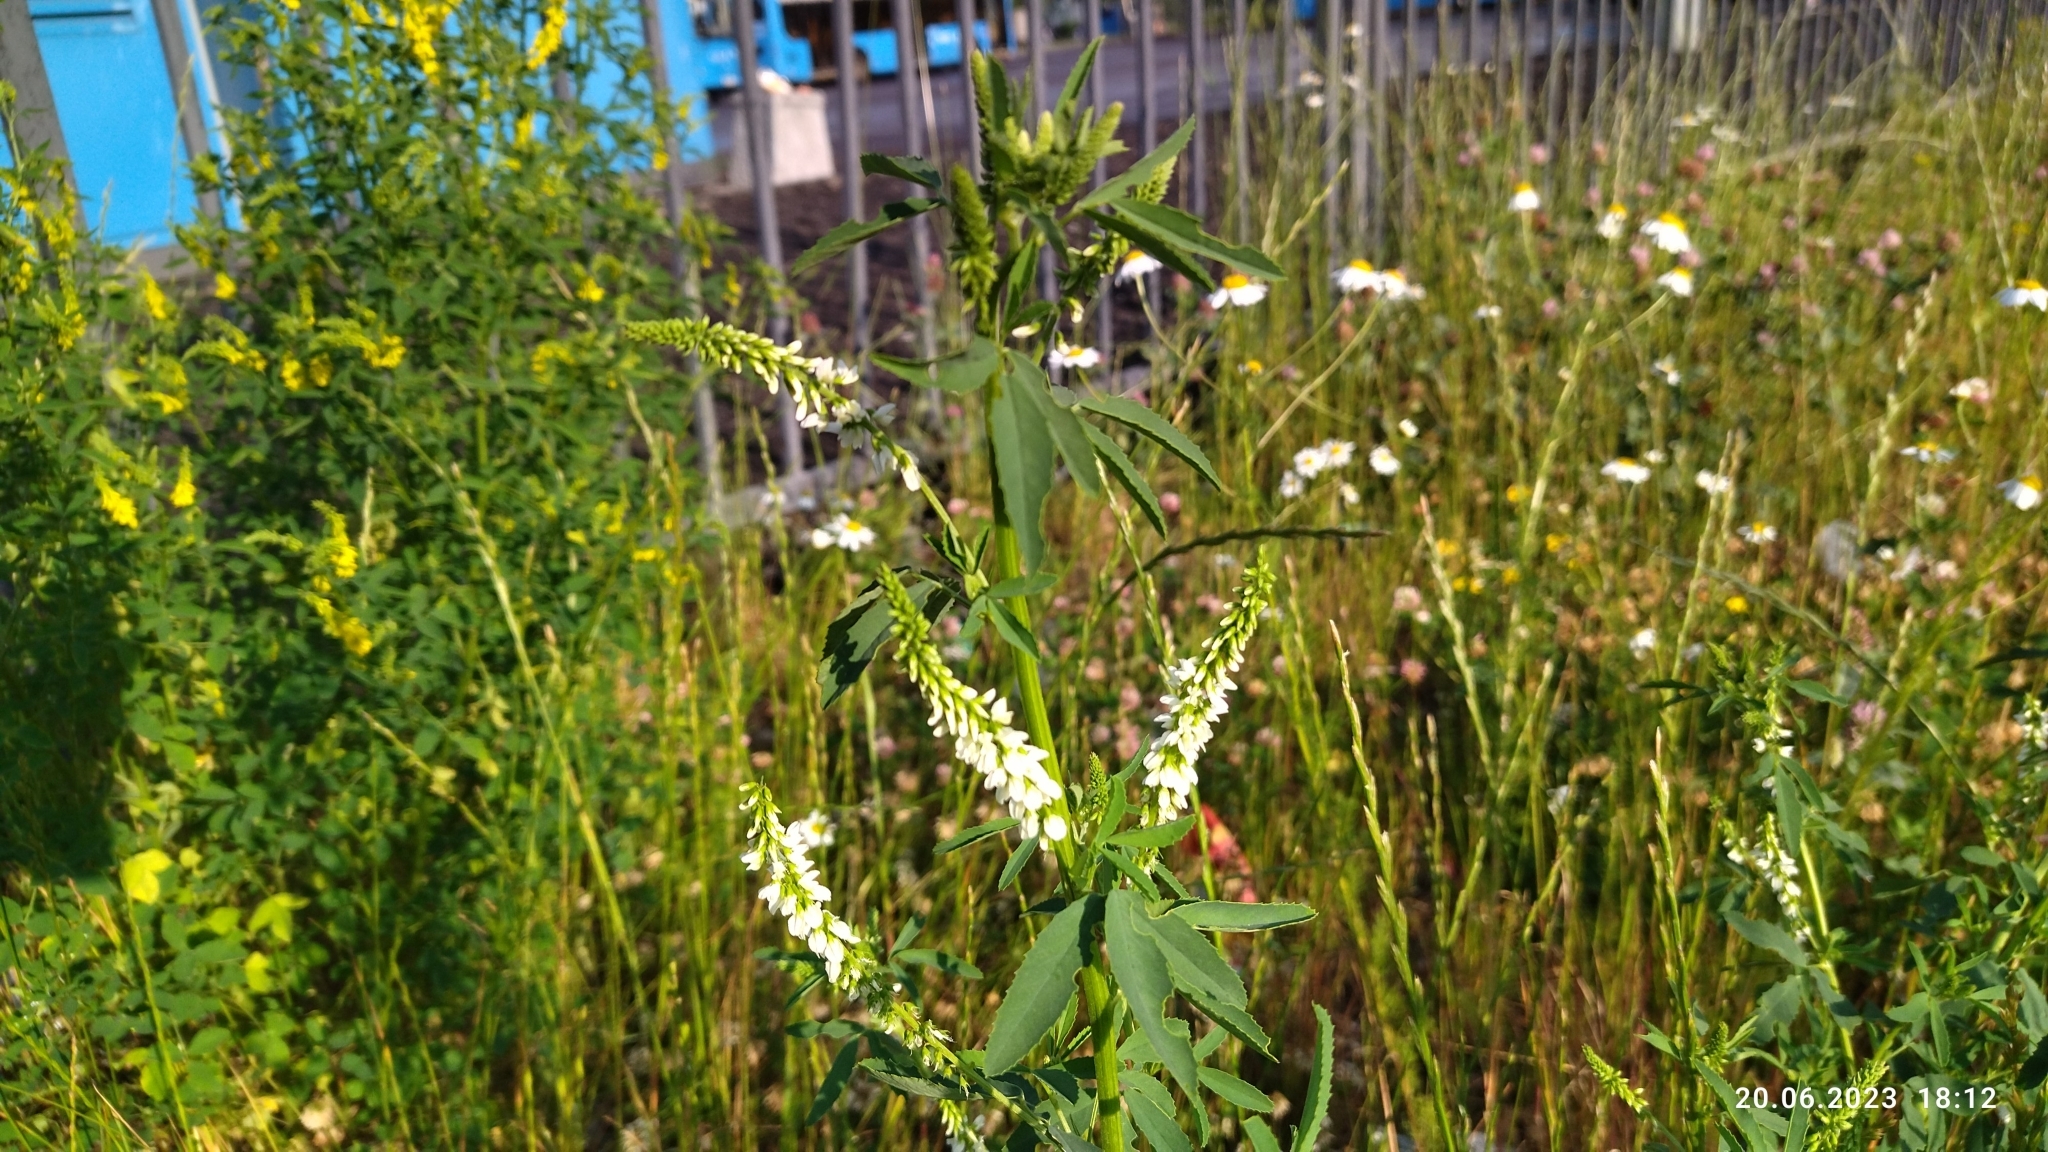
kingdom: Plantae
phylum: Tracheophyta
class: Magnoliopsida
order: Fabales
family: Fabaceae
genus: Melilotus
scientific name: Melilotus albus
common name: White melilot
